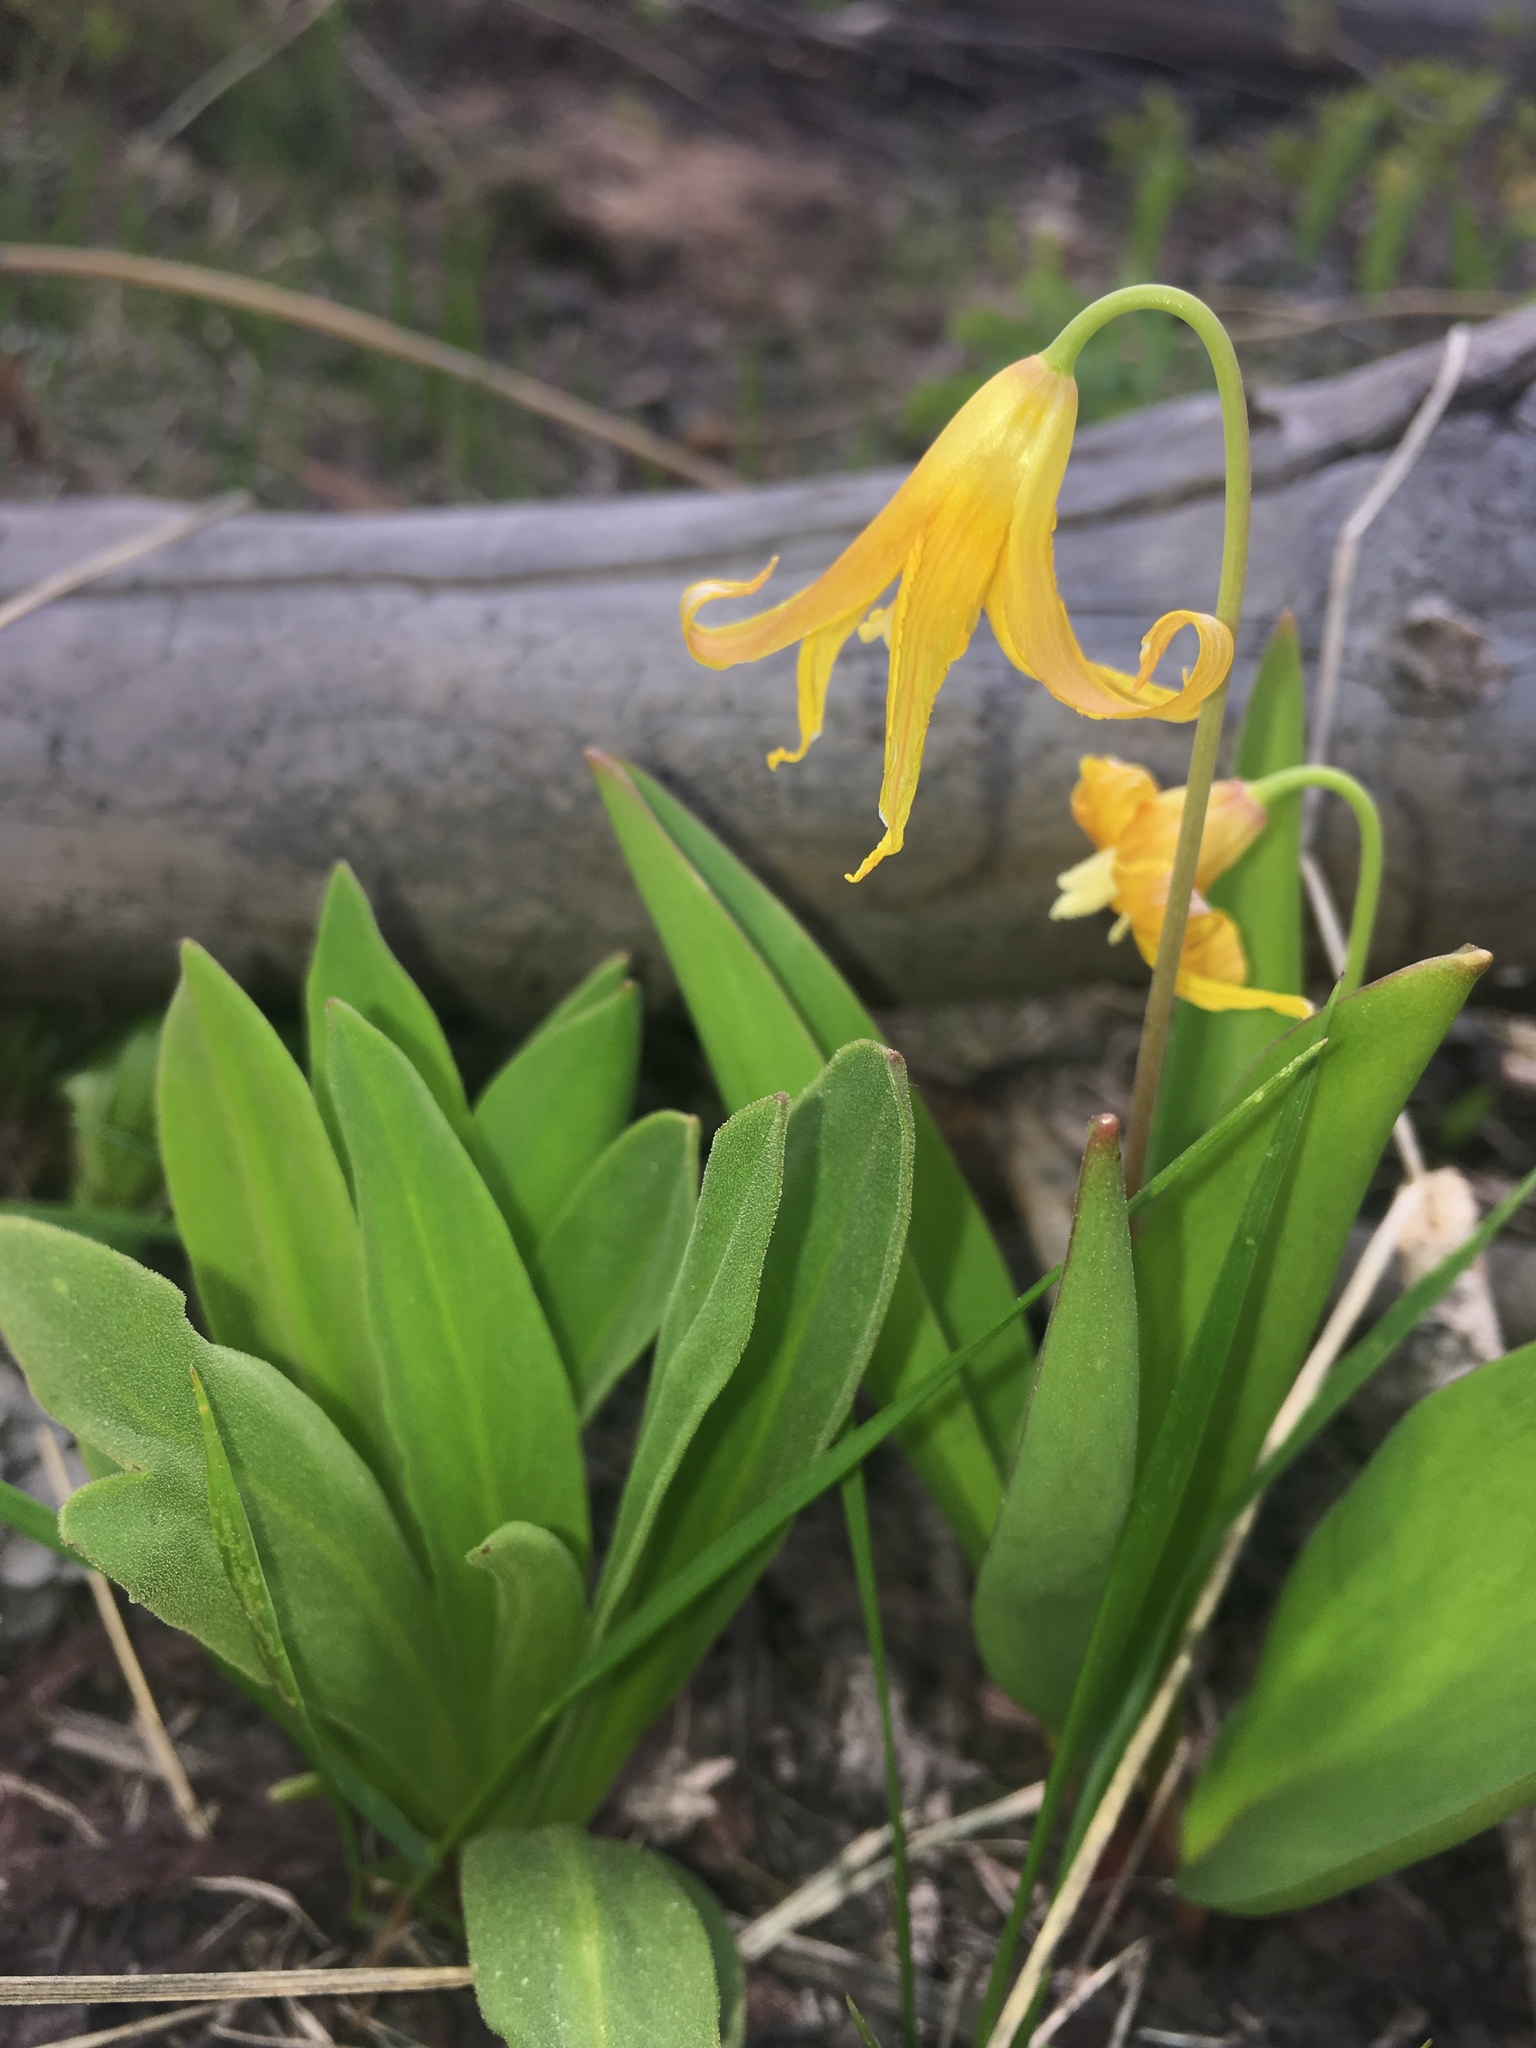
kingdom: Plantae
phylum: Tracheophyta
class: Liliopsida
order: Liliales
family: Liliaceae
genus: Erythronium
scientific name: Erythronium grandiflorum
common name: Avalanche-lily
